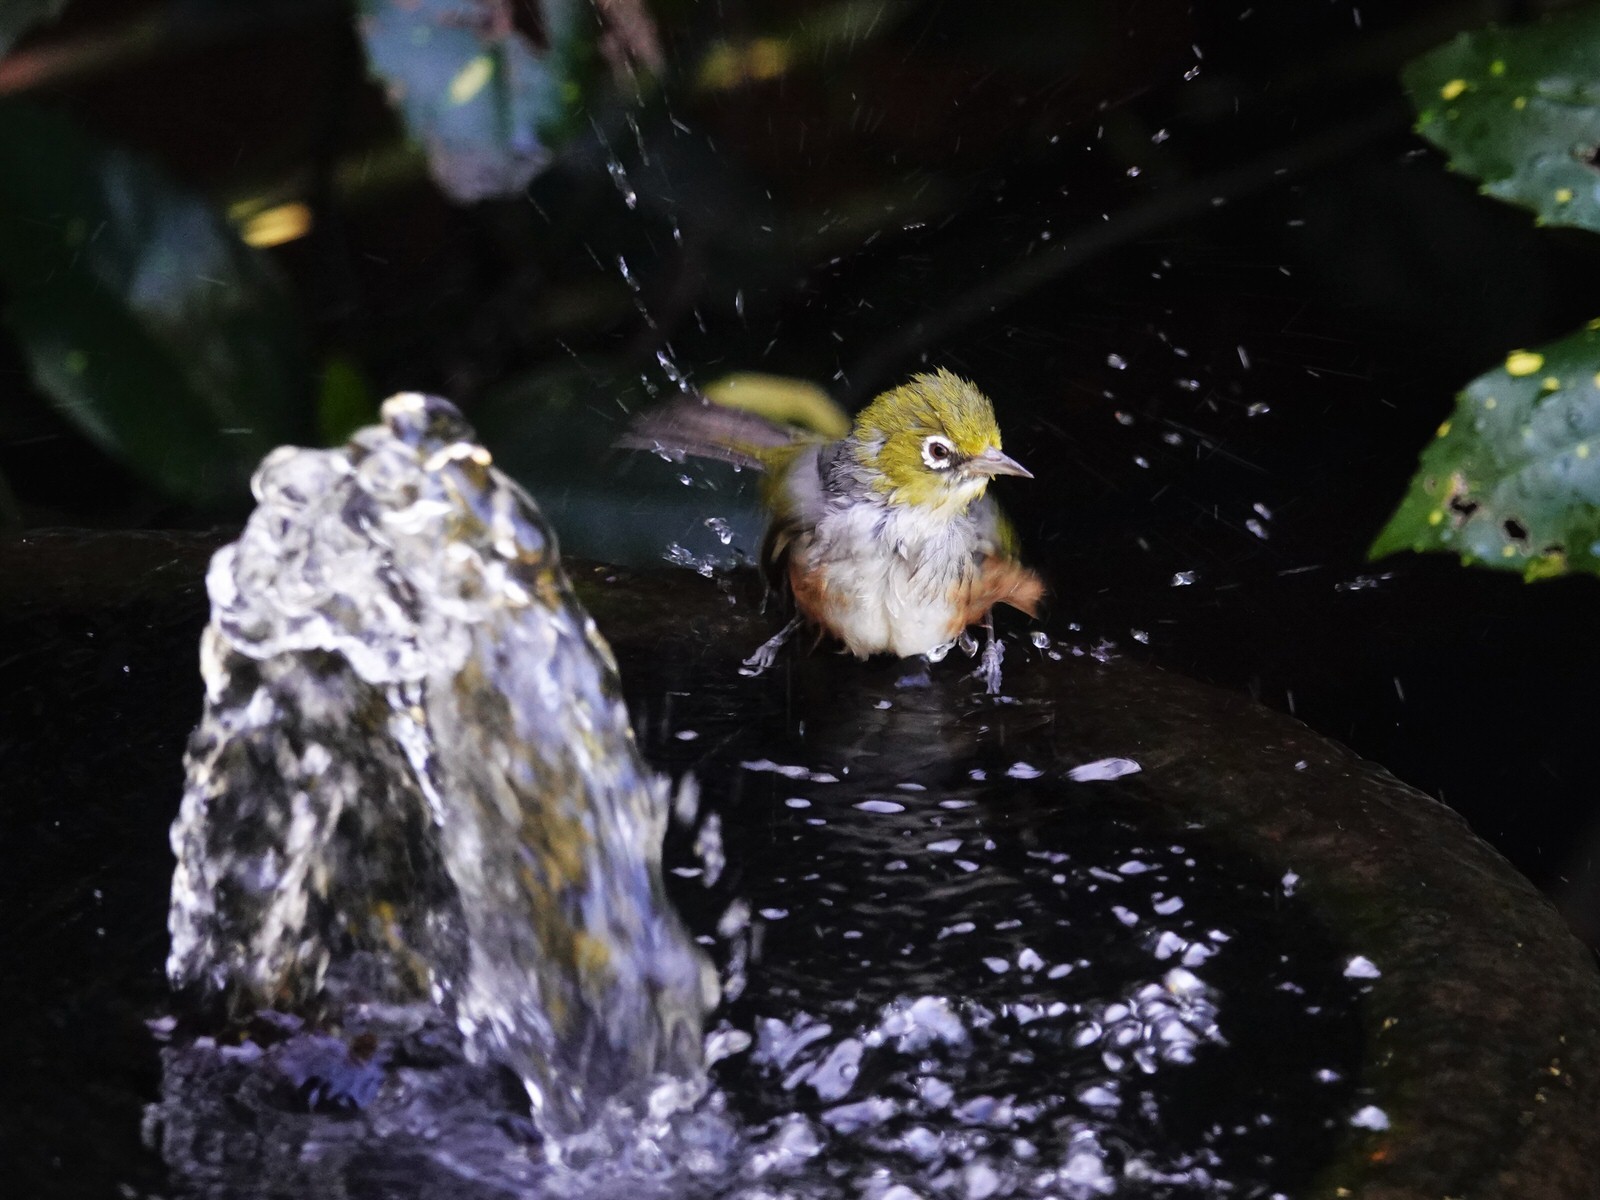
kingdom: Animalia
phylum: Chordata
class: Aves
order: Passeriformes
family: Zosteropidae
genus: Zosterops
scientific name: Zosterops lateralis
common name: Silvereye
